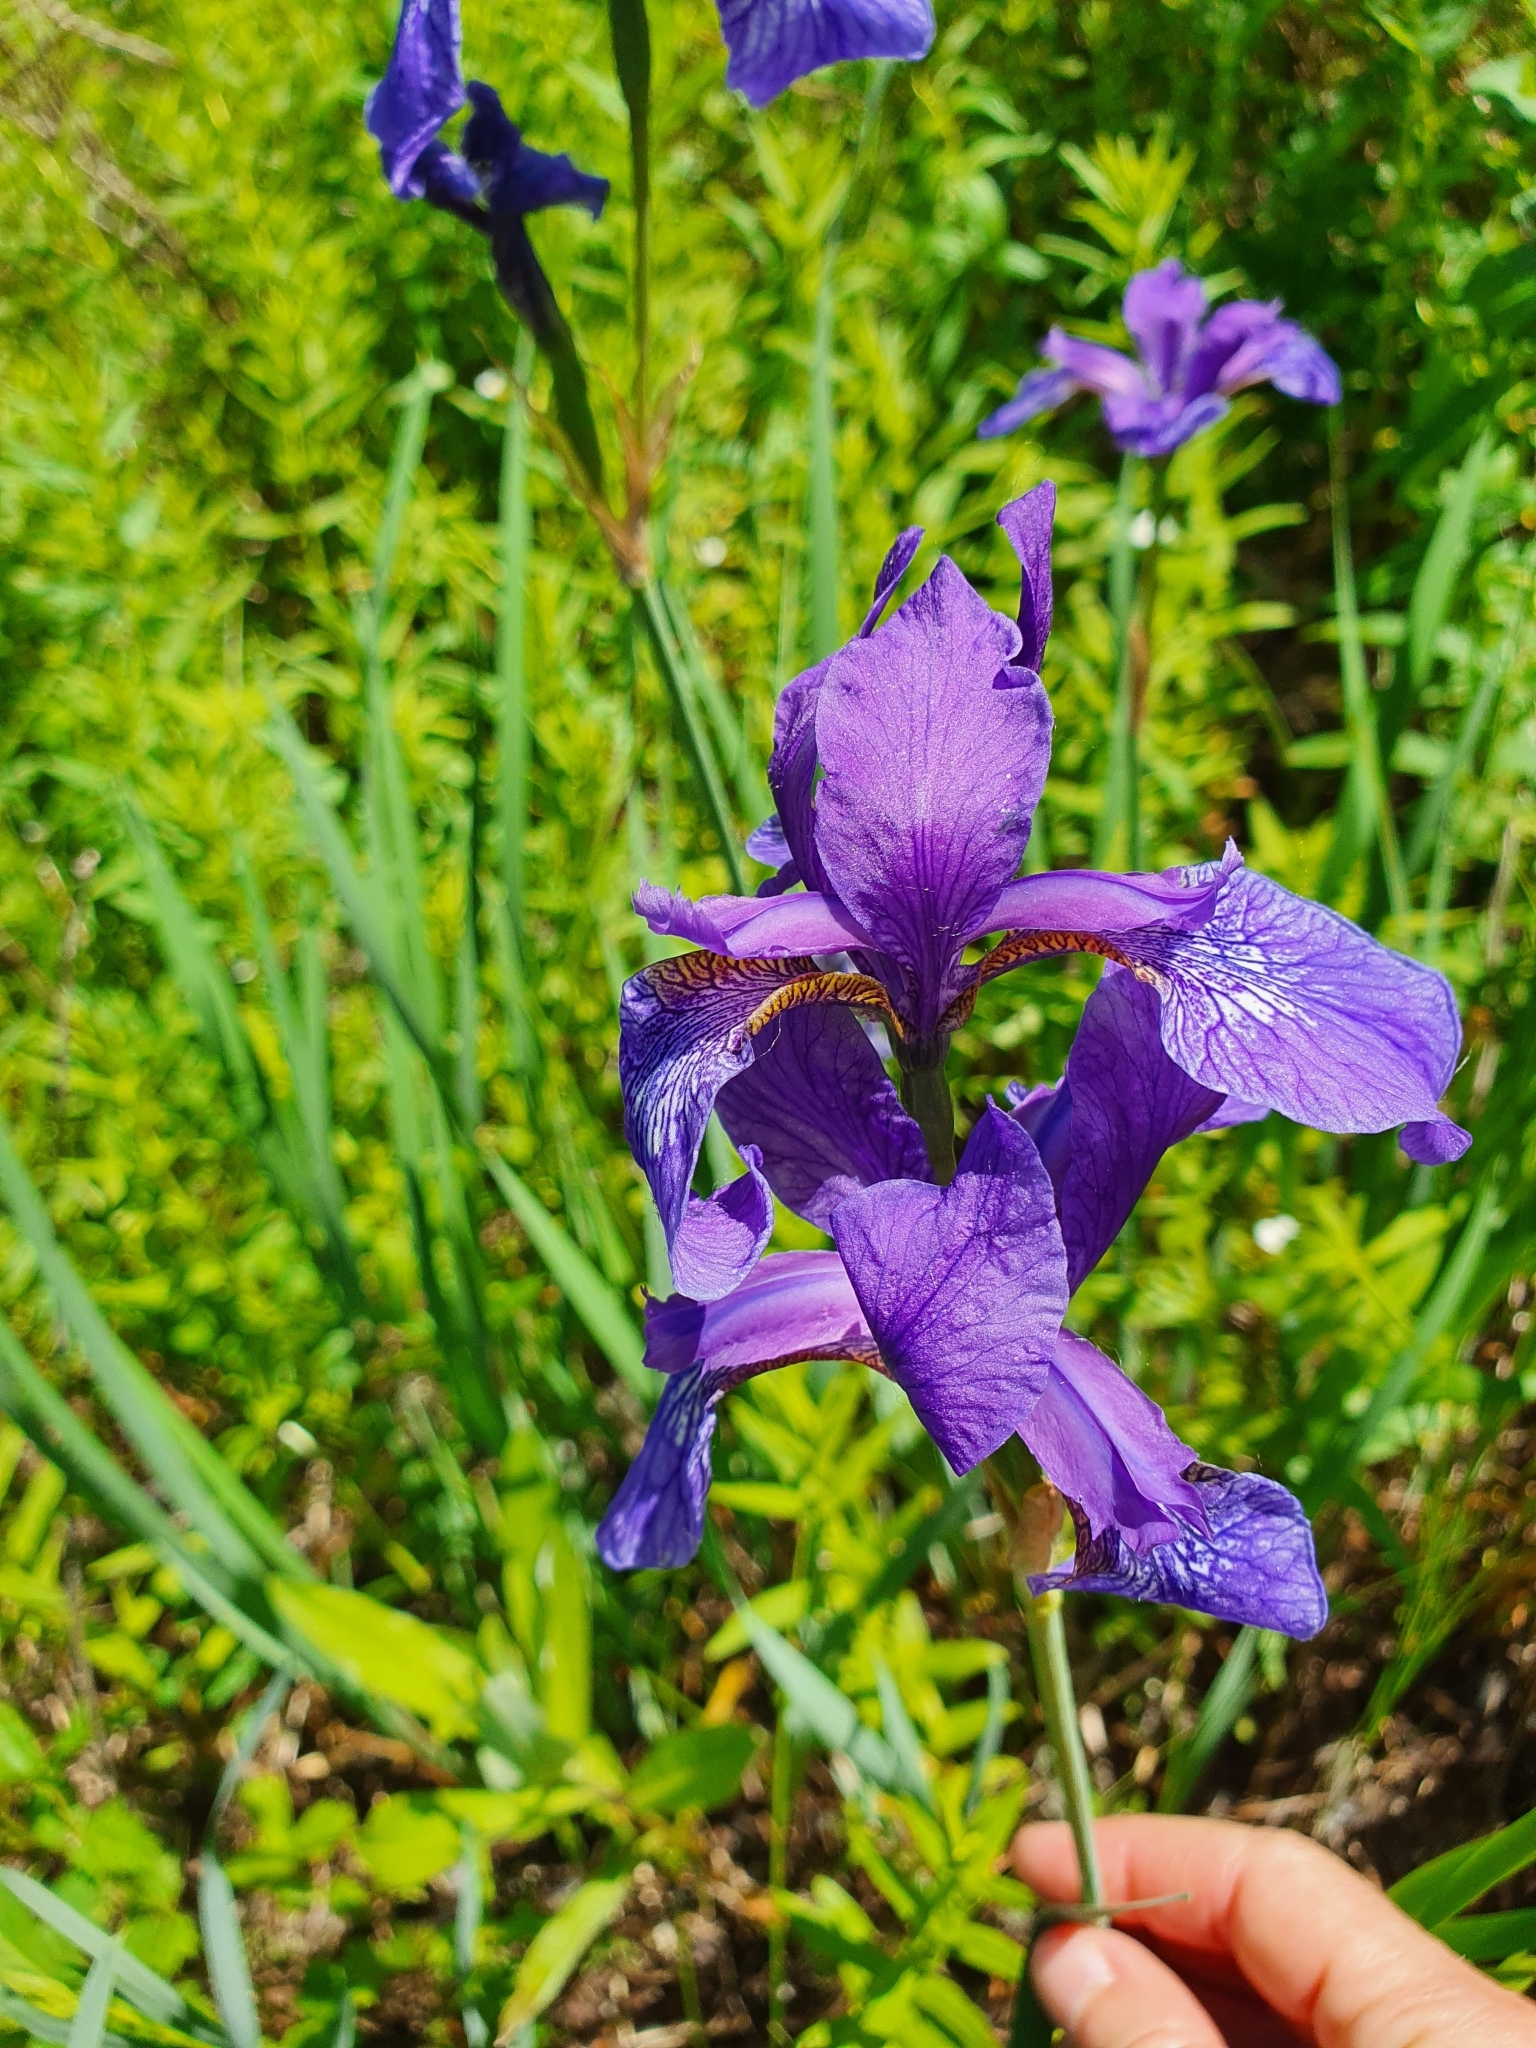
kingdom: Plantae
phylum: Tracheophyta
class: Liliopsida
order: Asparagales
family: Iridaceae
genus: Iris
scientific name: Iris sibirica
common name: Siberian iris
